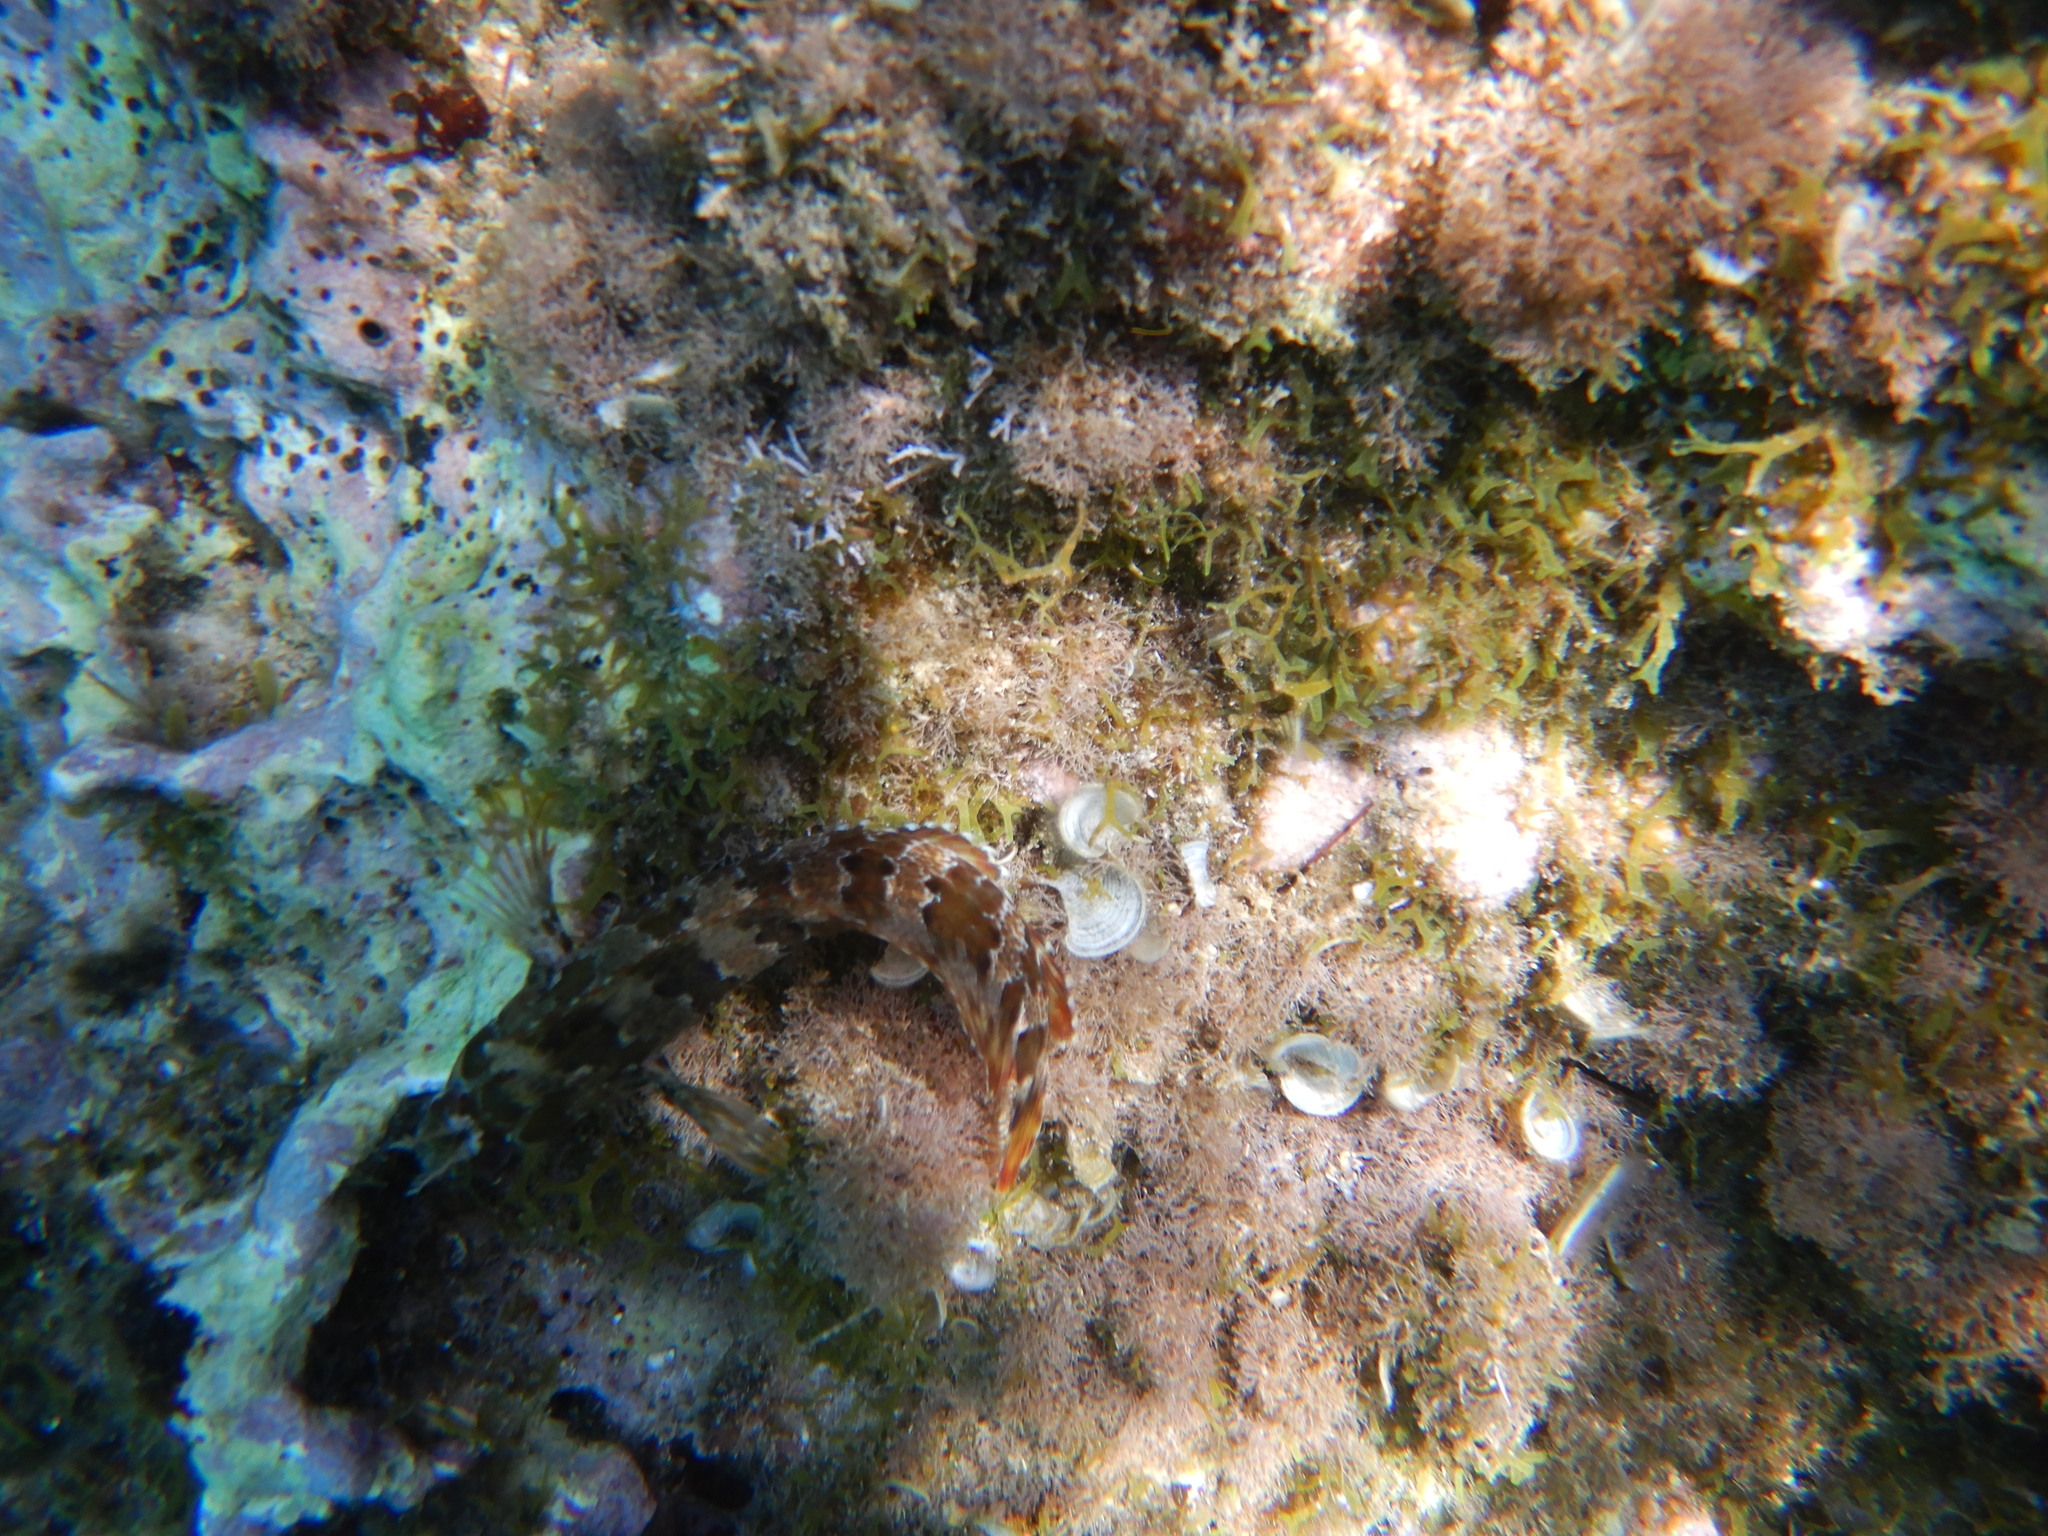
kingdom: Animalia
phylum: Chordata
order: Perciformes
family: Blenniidae
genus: Parablennius
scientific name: Parablennius gattorugine
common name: Tompot blenny
